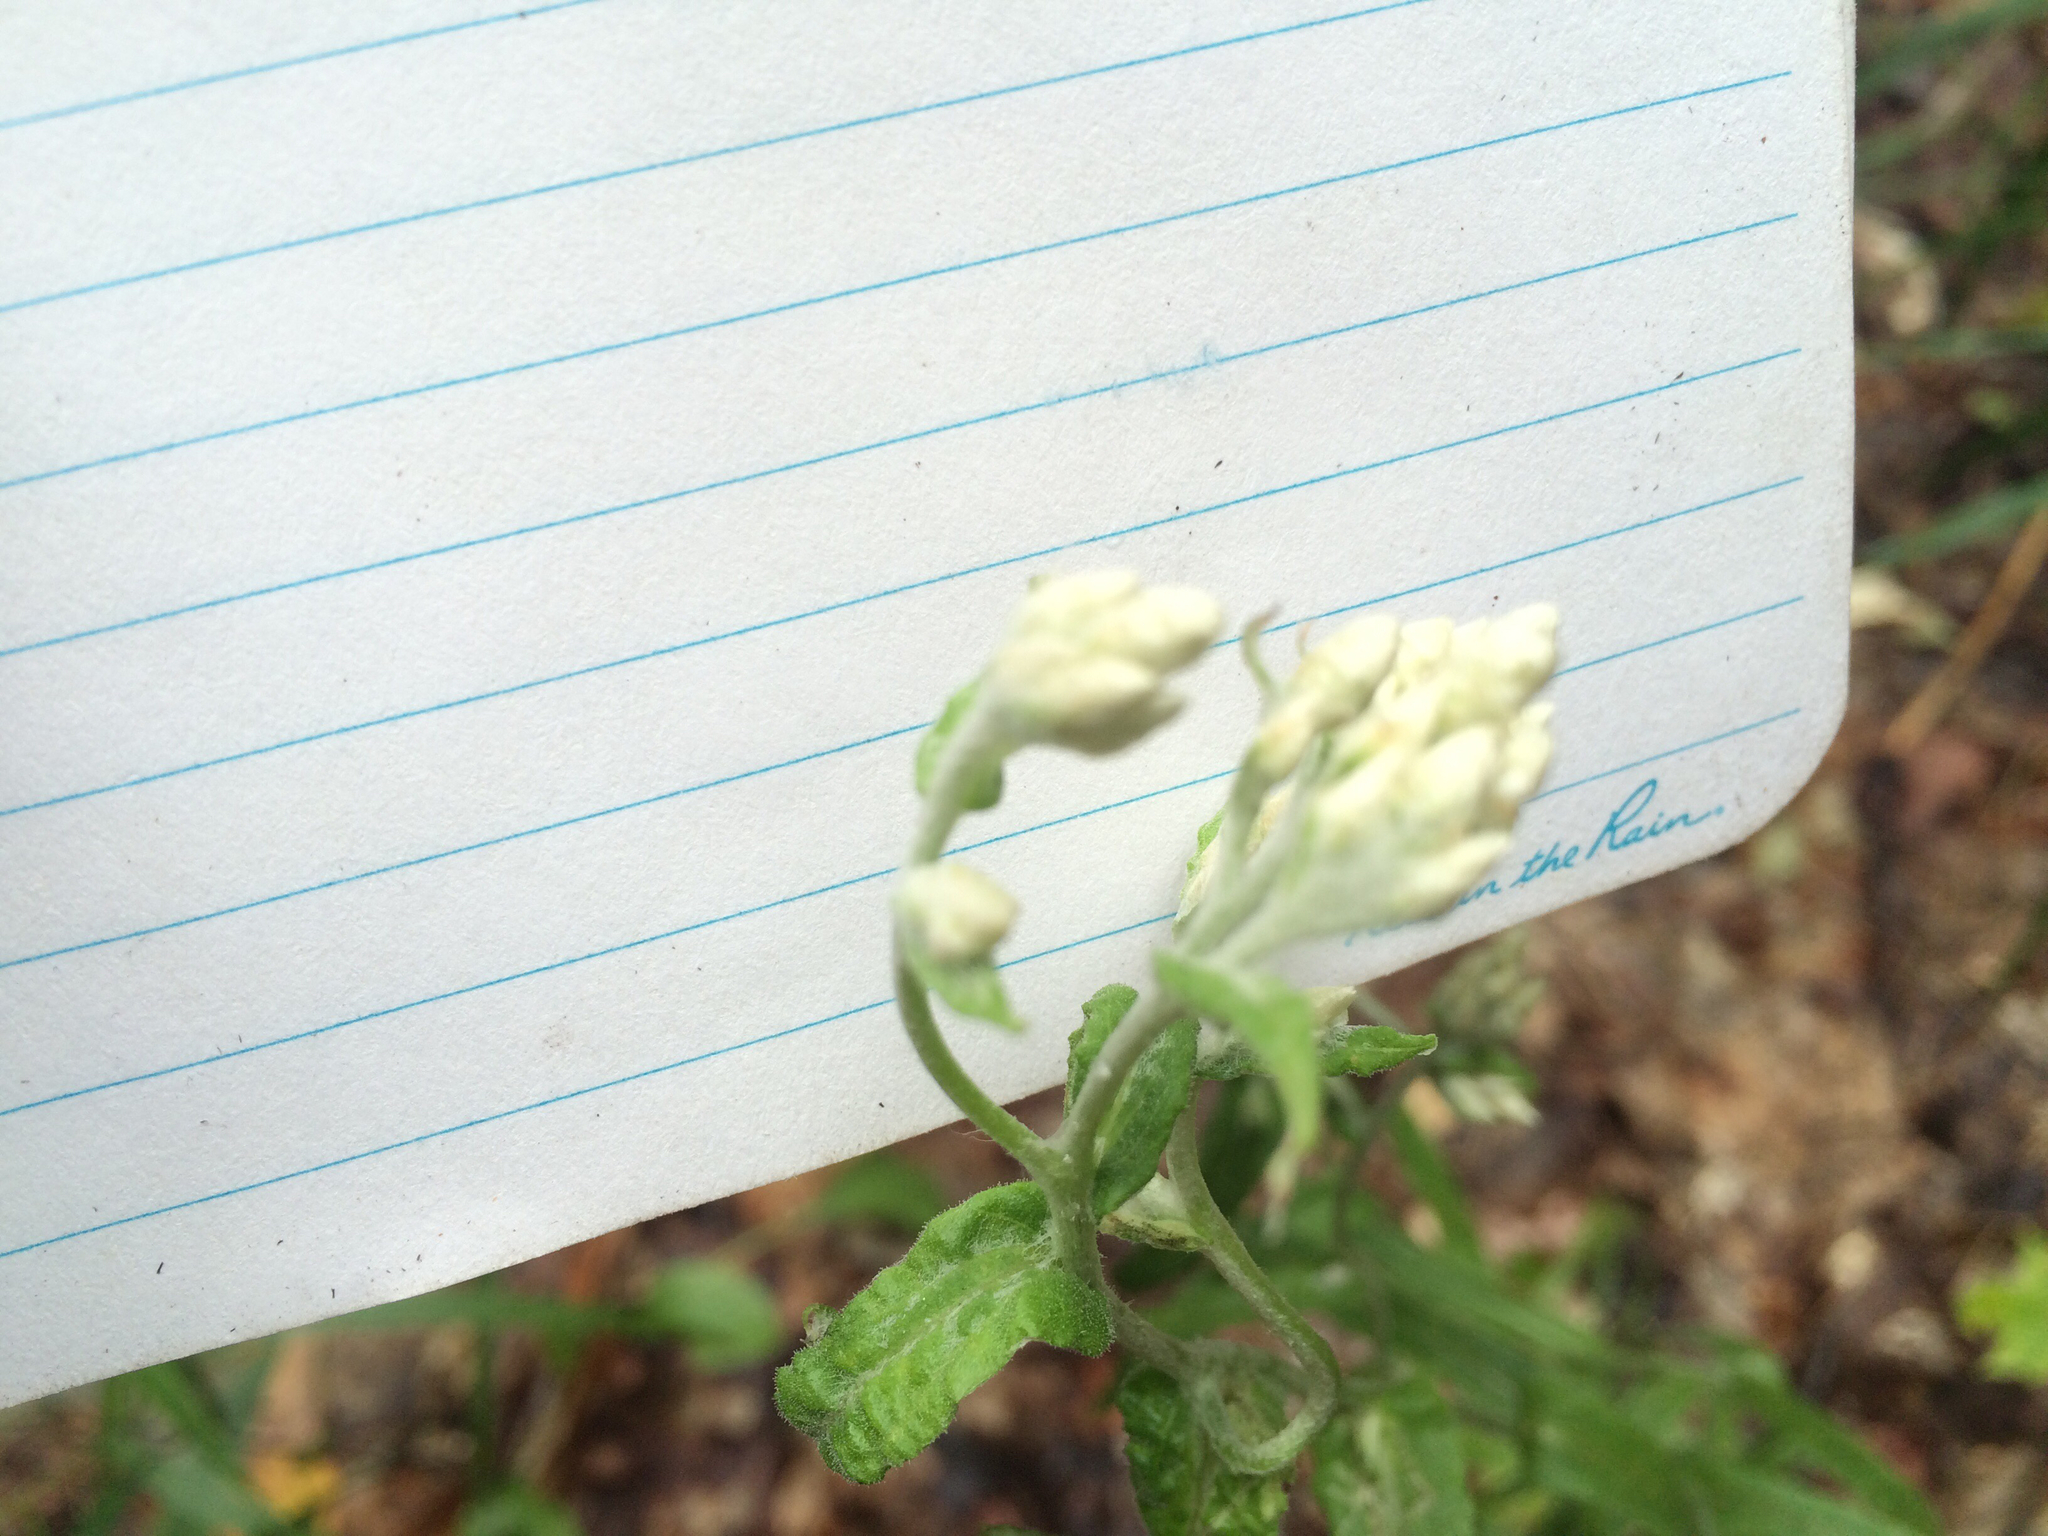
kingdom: Plantae
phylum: Tracheophyta
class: Magnoliopsida
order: Asterales
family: Asteraceae
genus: Pseudognaphalium
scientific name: Pseudognaphalium macounii
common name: Clammy cudweed
